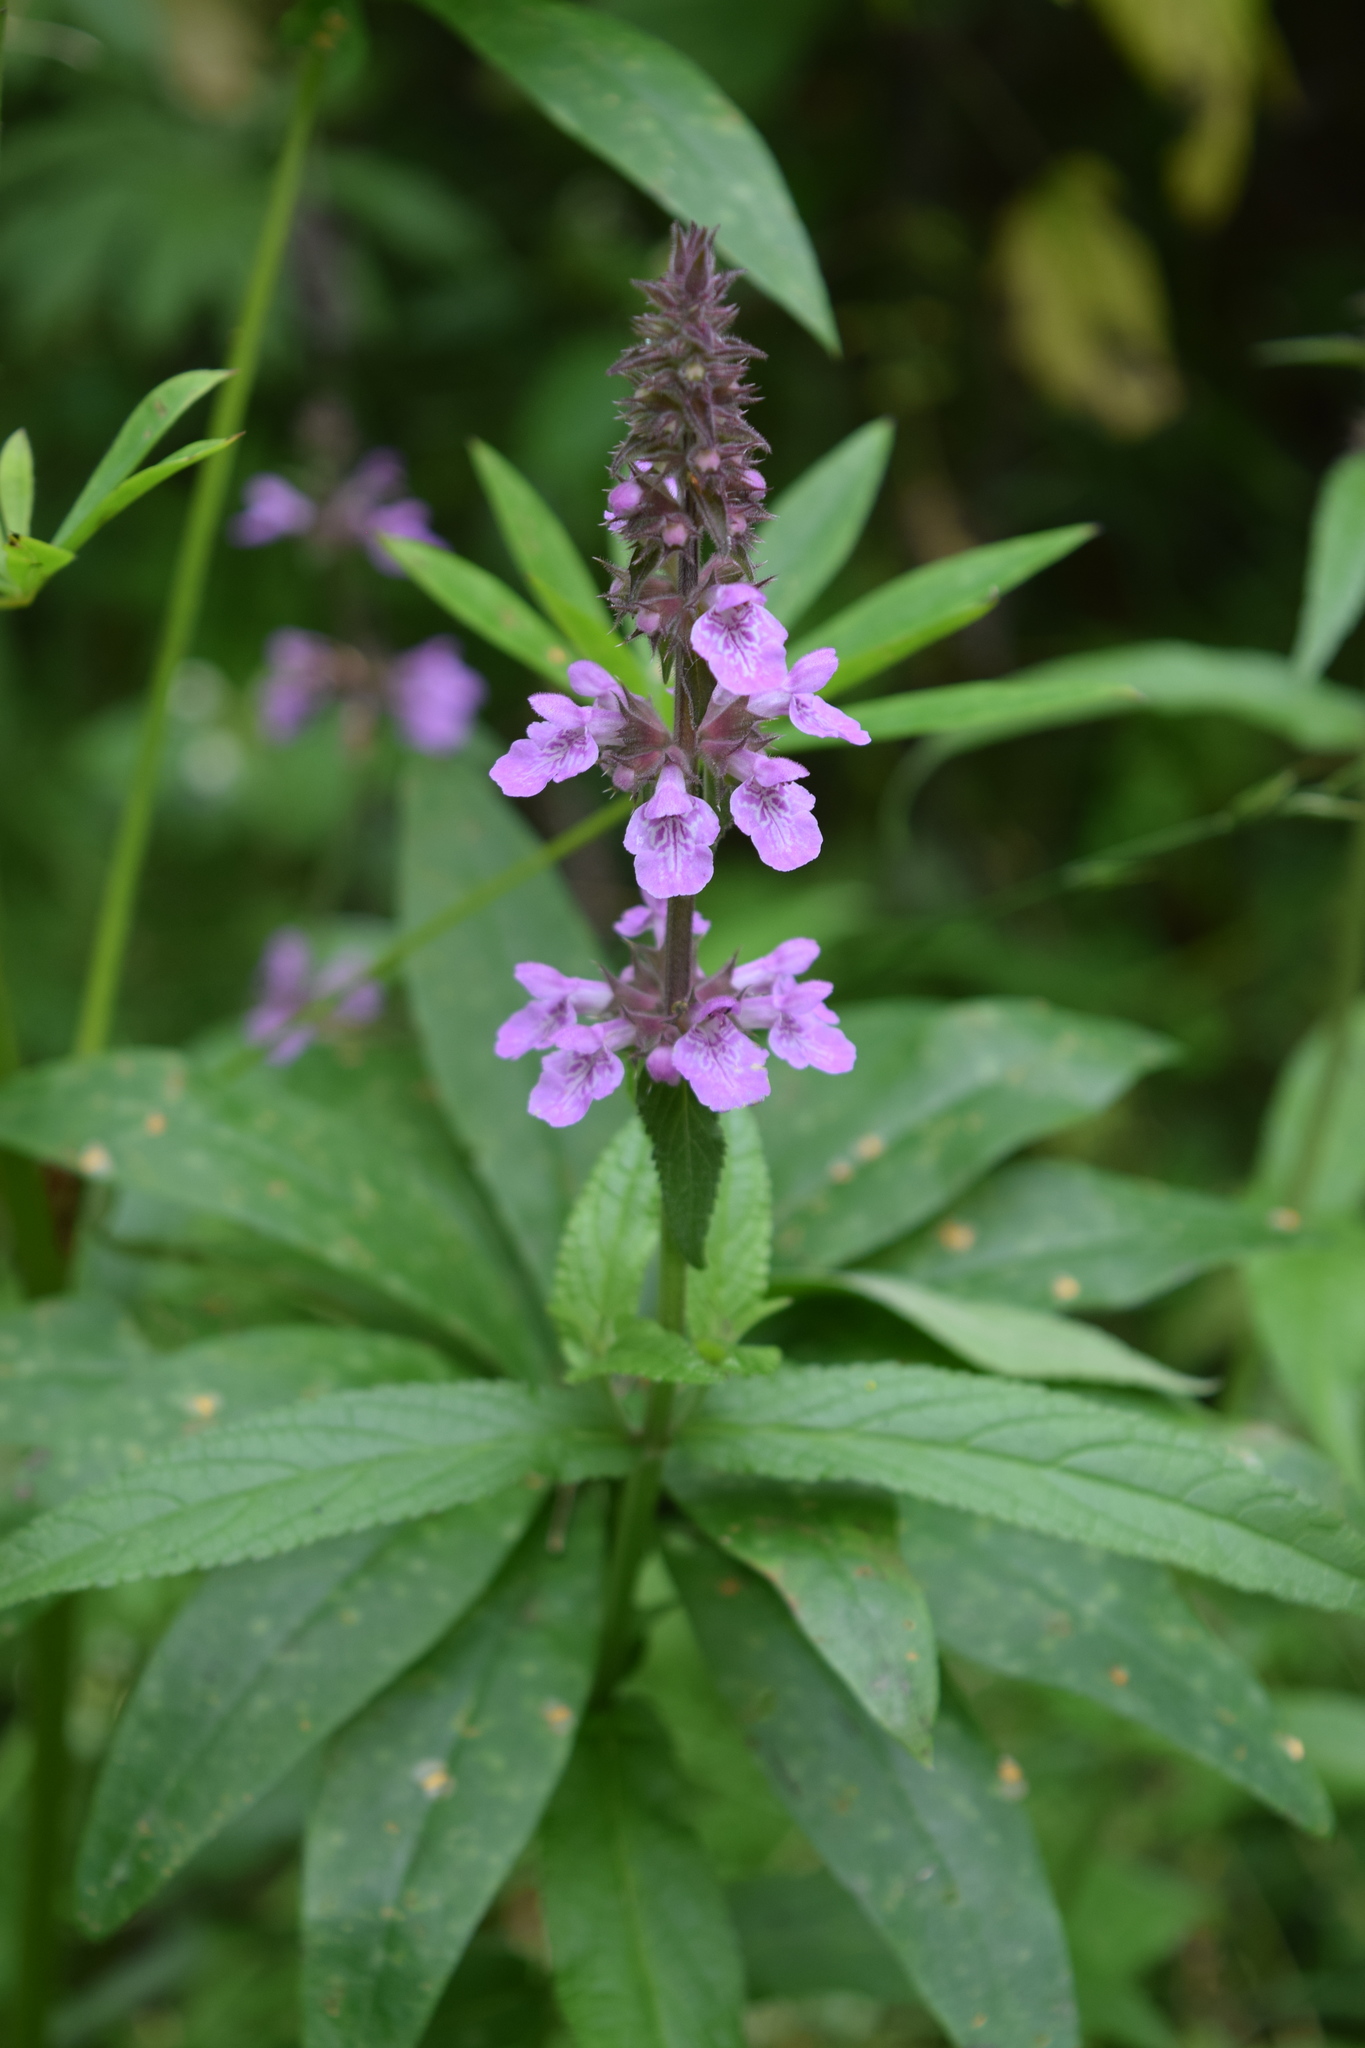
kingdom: Plantae
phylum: Tracheophyta
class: Magnoliopsida
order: Lamiales
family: Lamiaceae
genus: Stachys
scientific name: Stachys palustris
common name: Marsh woundwort
